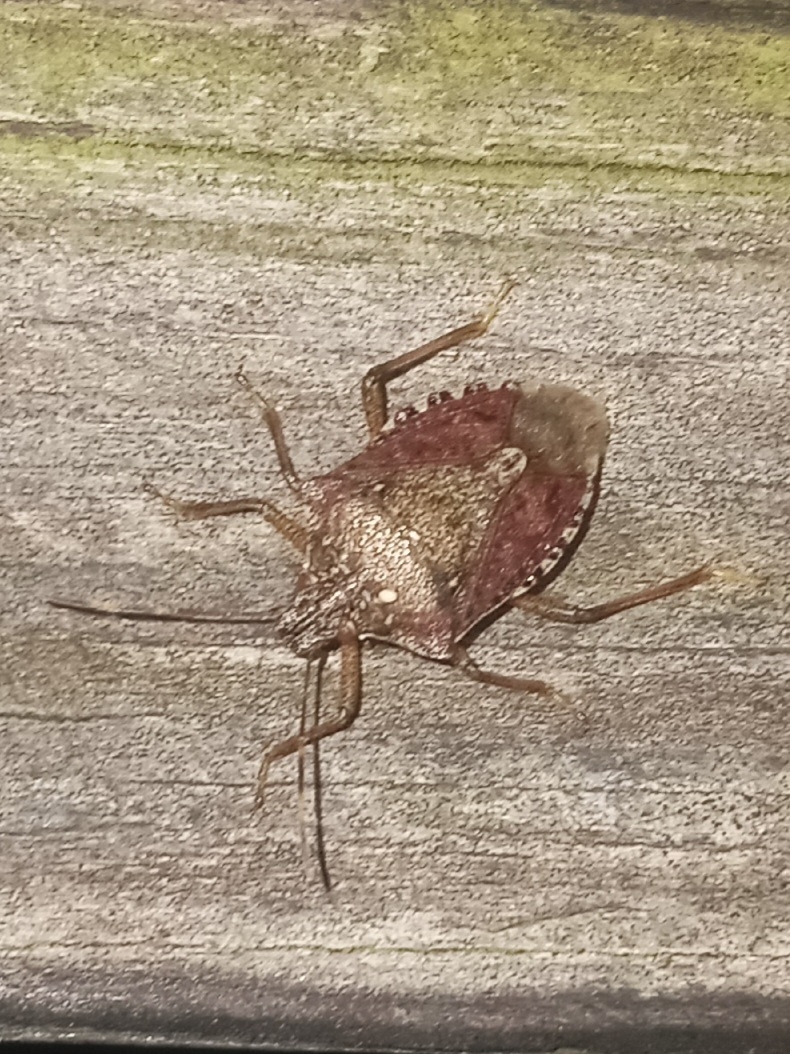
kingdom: Animalia
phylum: Arthropoda
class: Insecta
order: Hemiptera
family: Pentatomidae
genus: Halyomorpha
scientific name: Halyomorpha halys
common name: Brown marmorated stink bug
